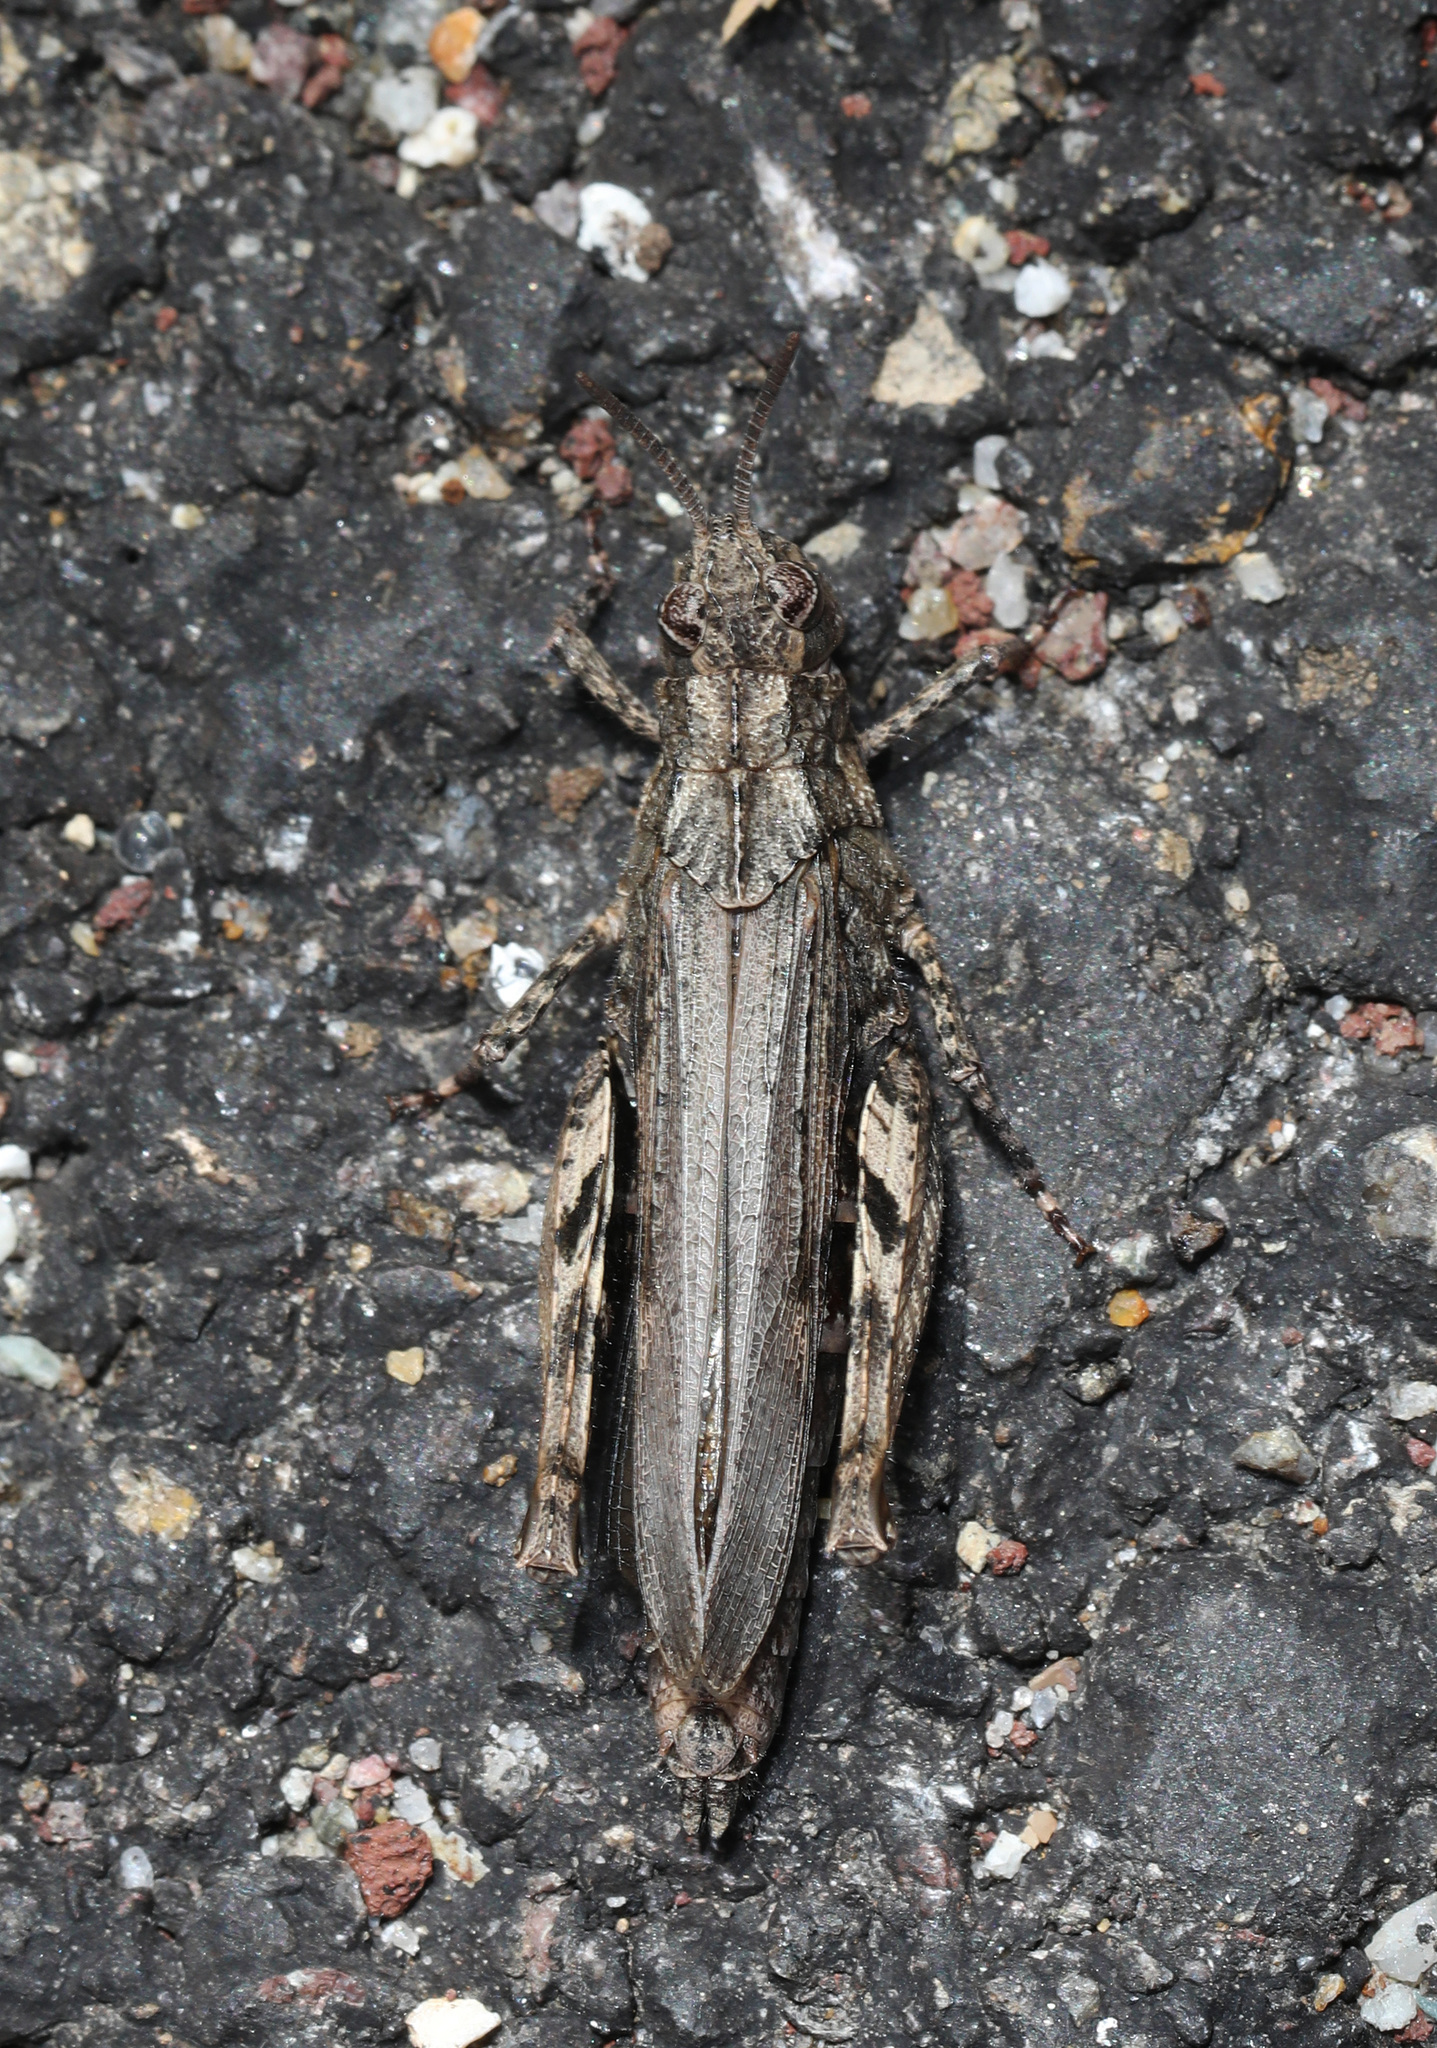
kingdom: Animalia
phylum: Arthropoda
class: Insecta
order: Orthoptera
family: Acrididae
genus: Chimarocephala
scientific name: Chimarocephala pacifica
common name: Painted meadow grasshopper
